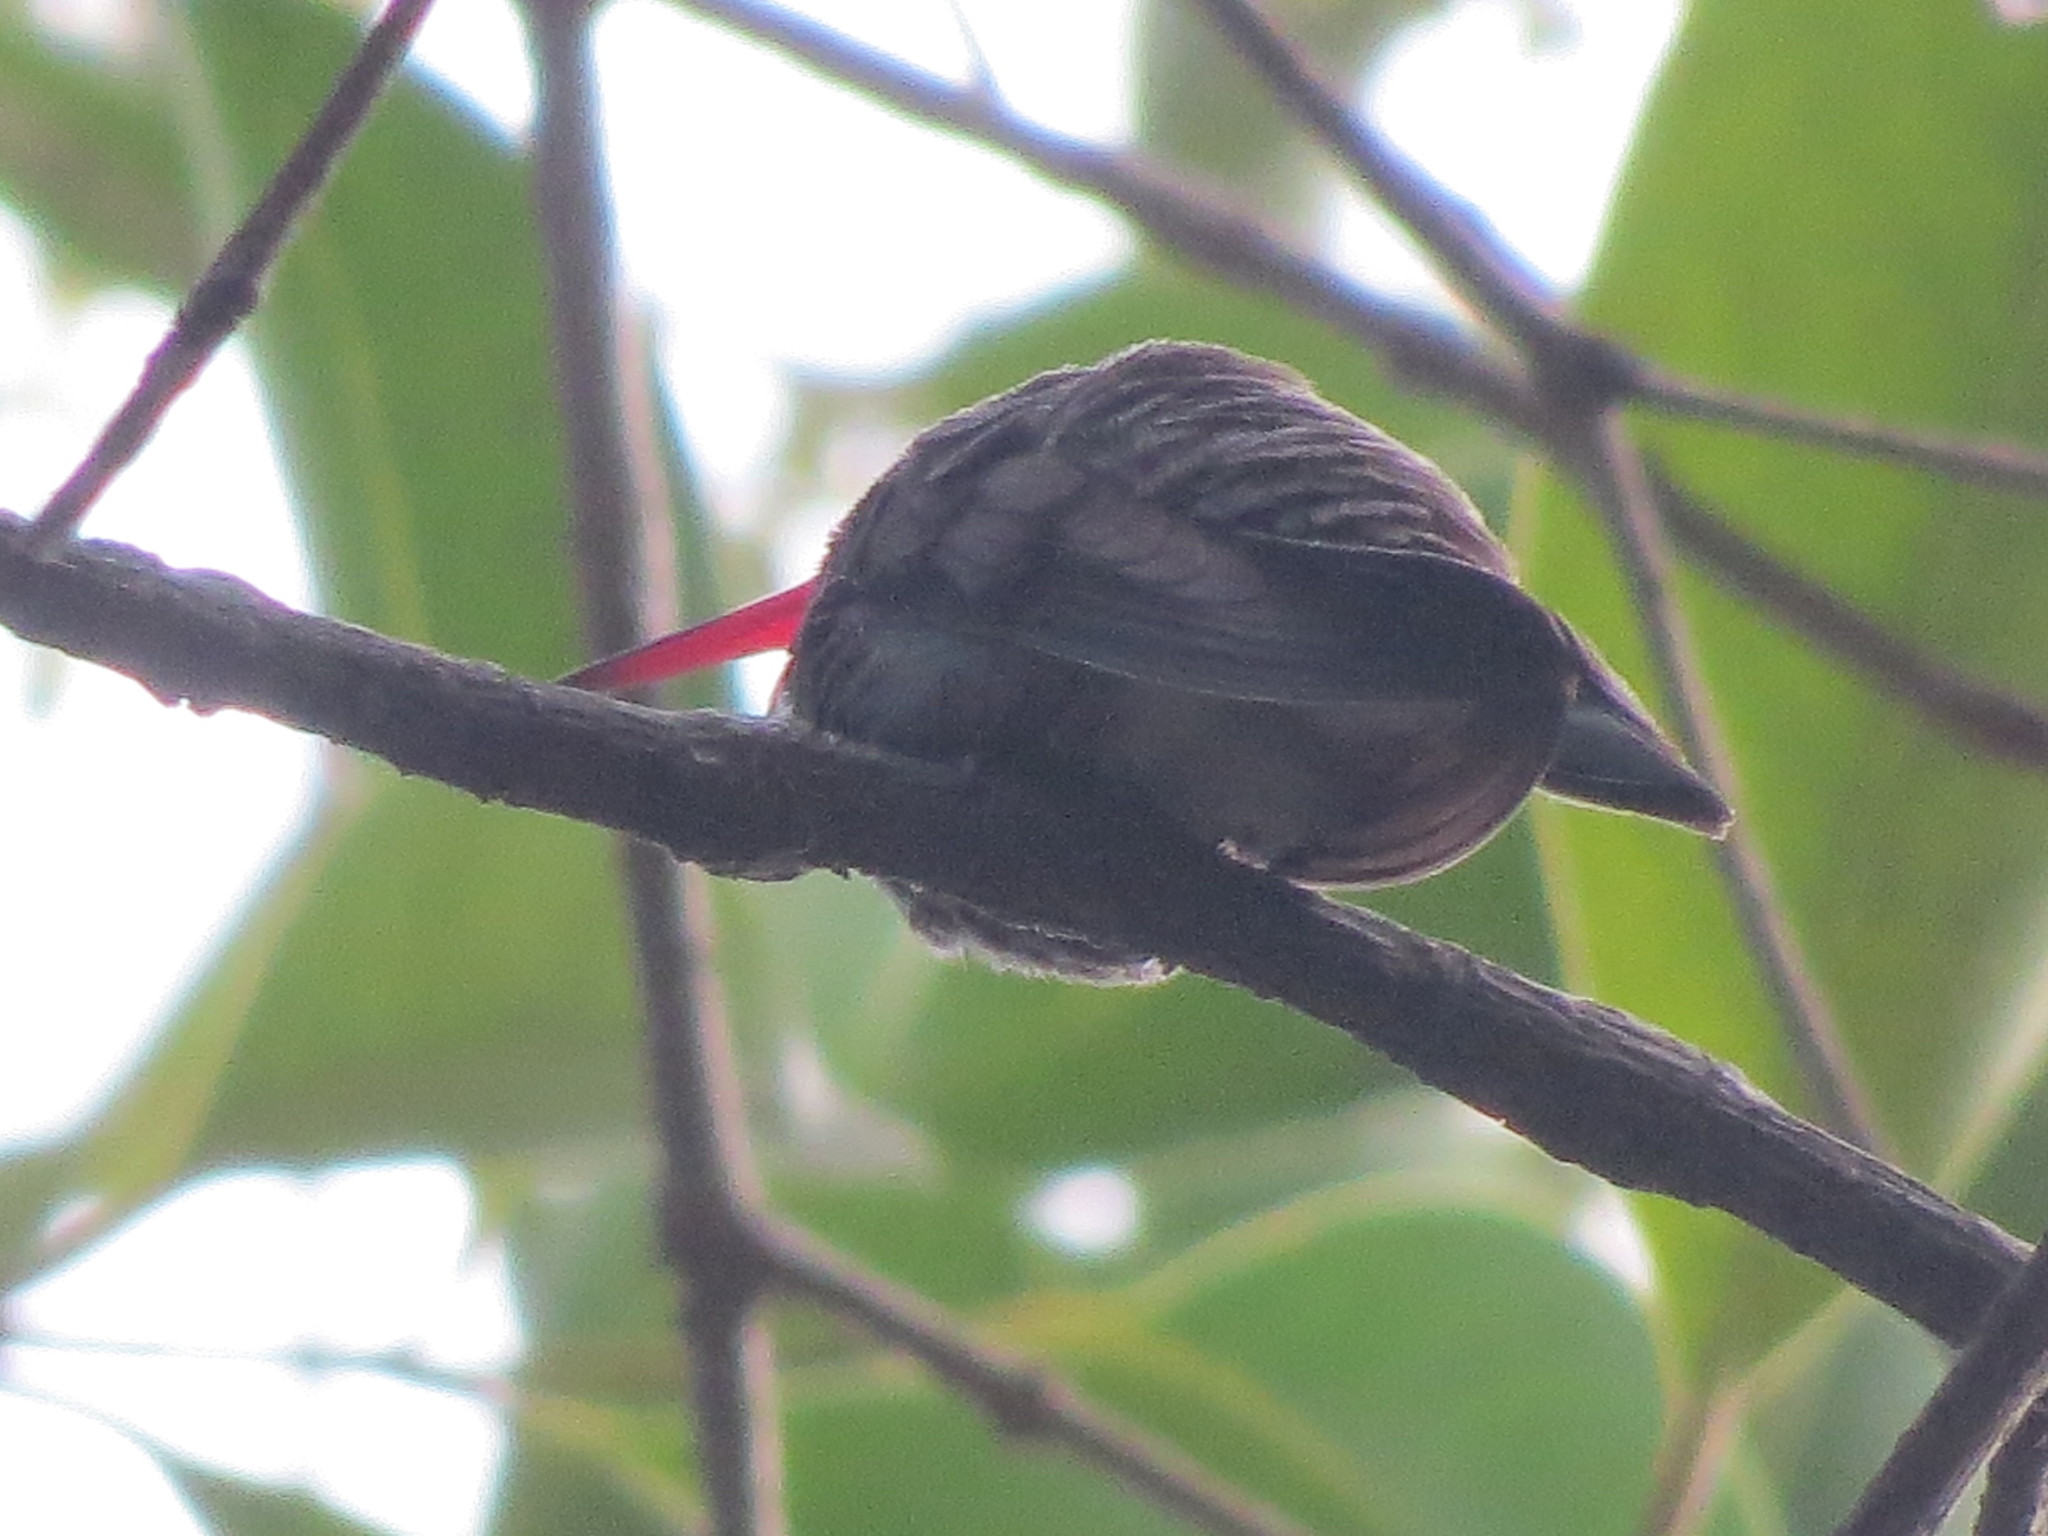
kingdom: Animalia
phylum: Chordata
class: Aves
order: Apodiformes
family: Trochilidae
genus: Cynanthus
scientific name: Cynanthus latirostris
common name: Broad-billed hummingbird
